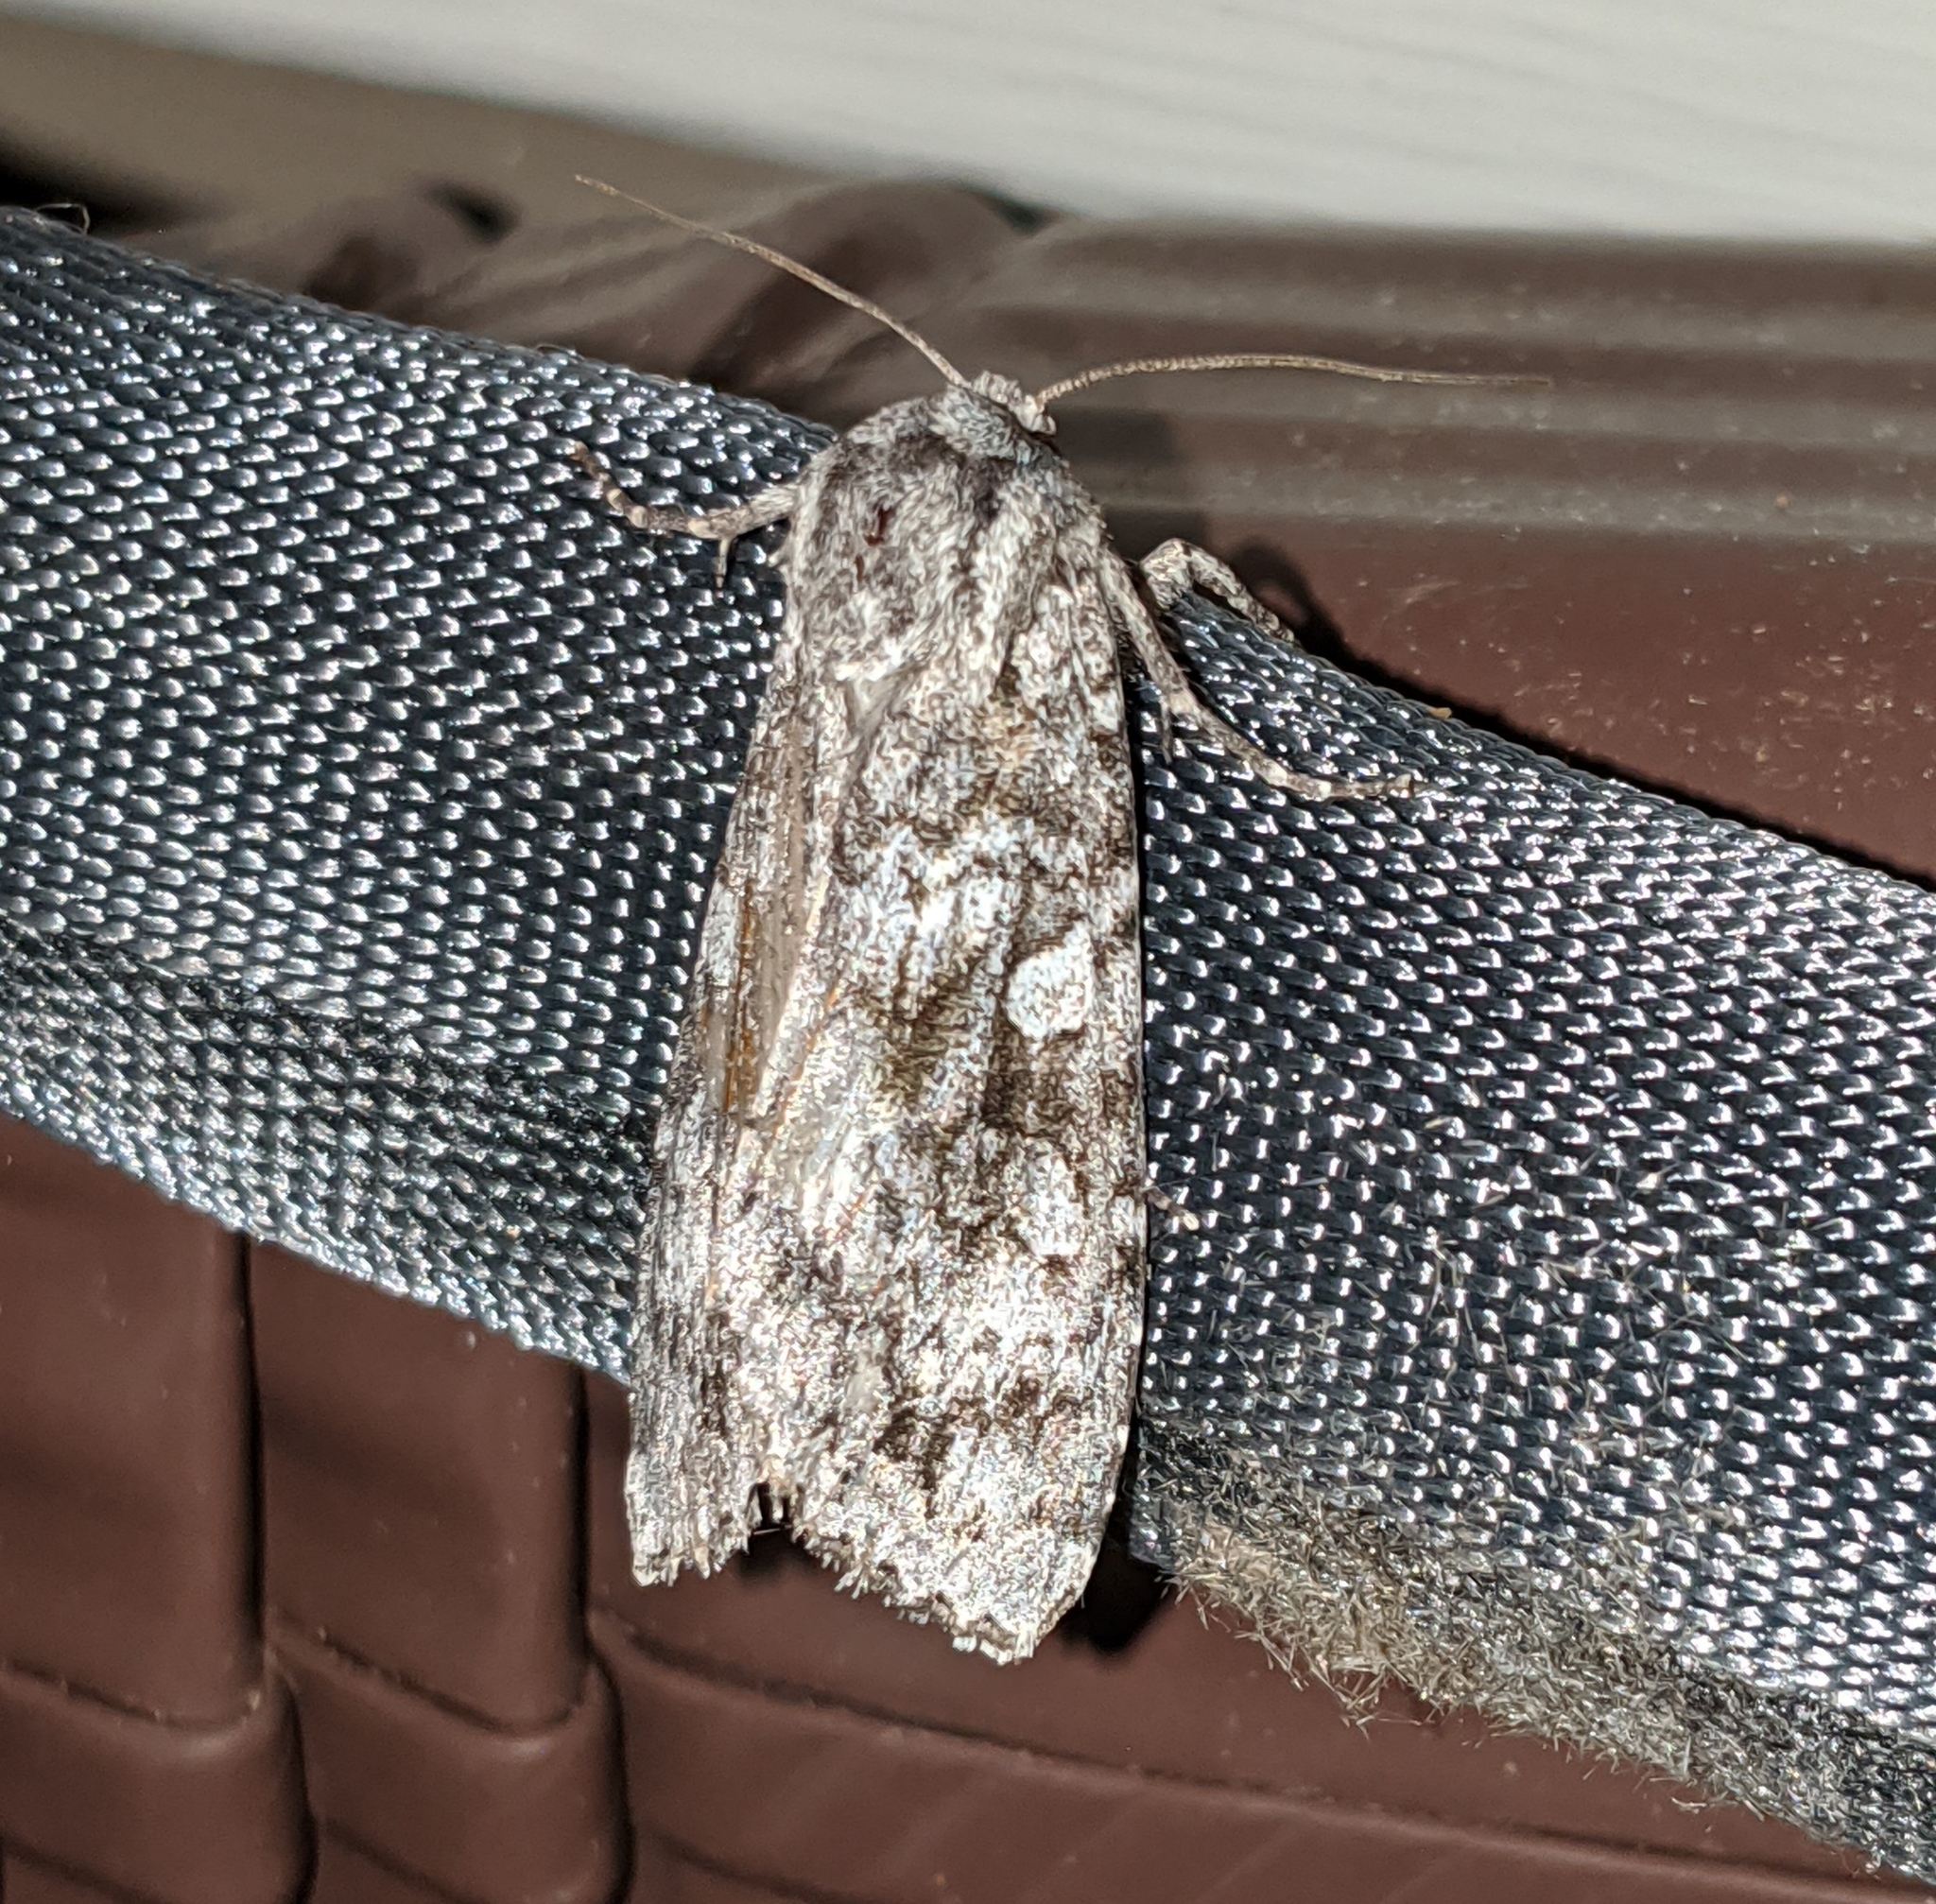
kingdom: Animalia
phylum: Arthropoda
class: Insecta
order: Lepidoptera
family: Noctuidae
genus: Eurois
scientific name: Eurois occulta
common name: Great brocade
